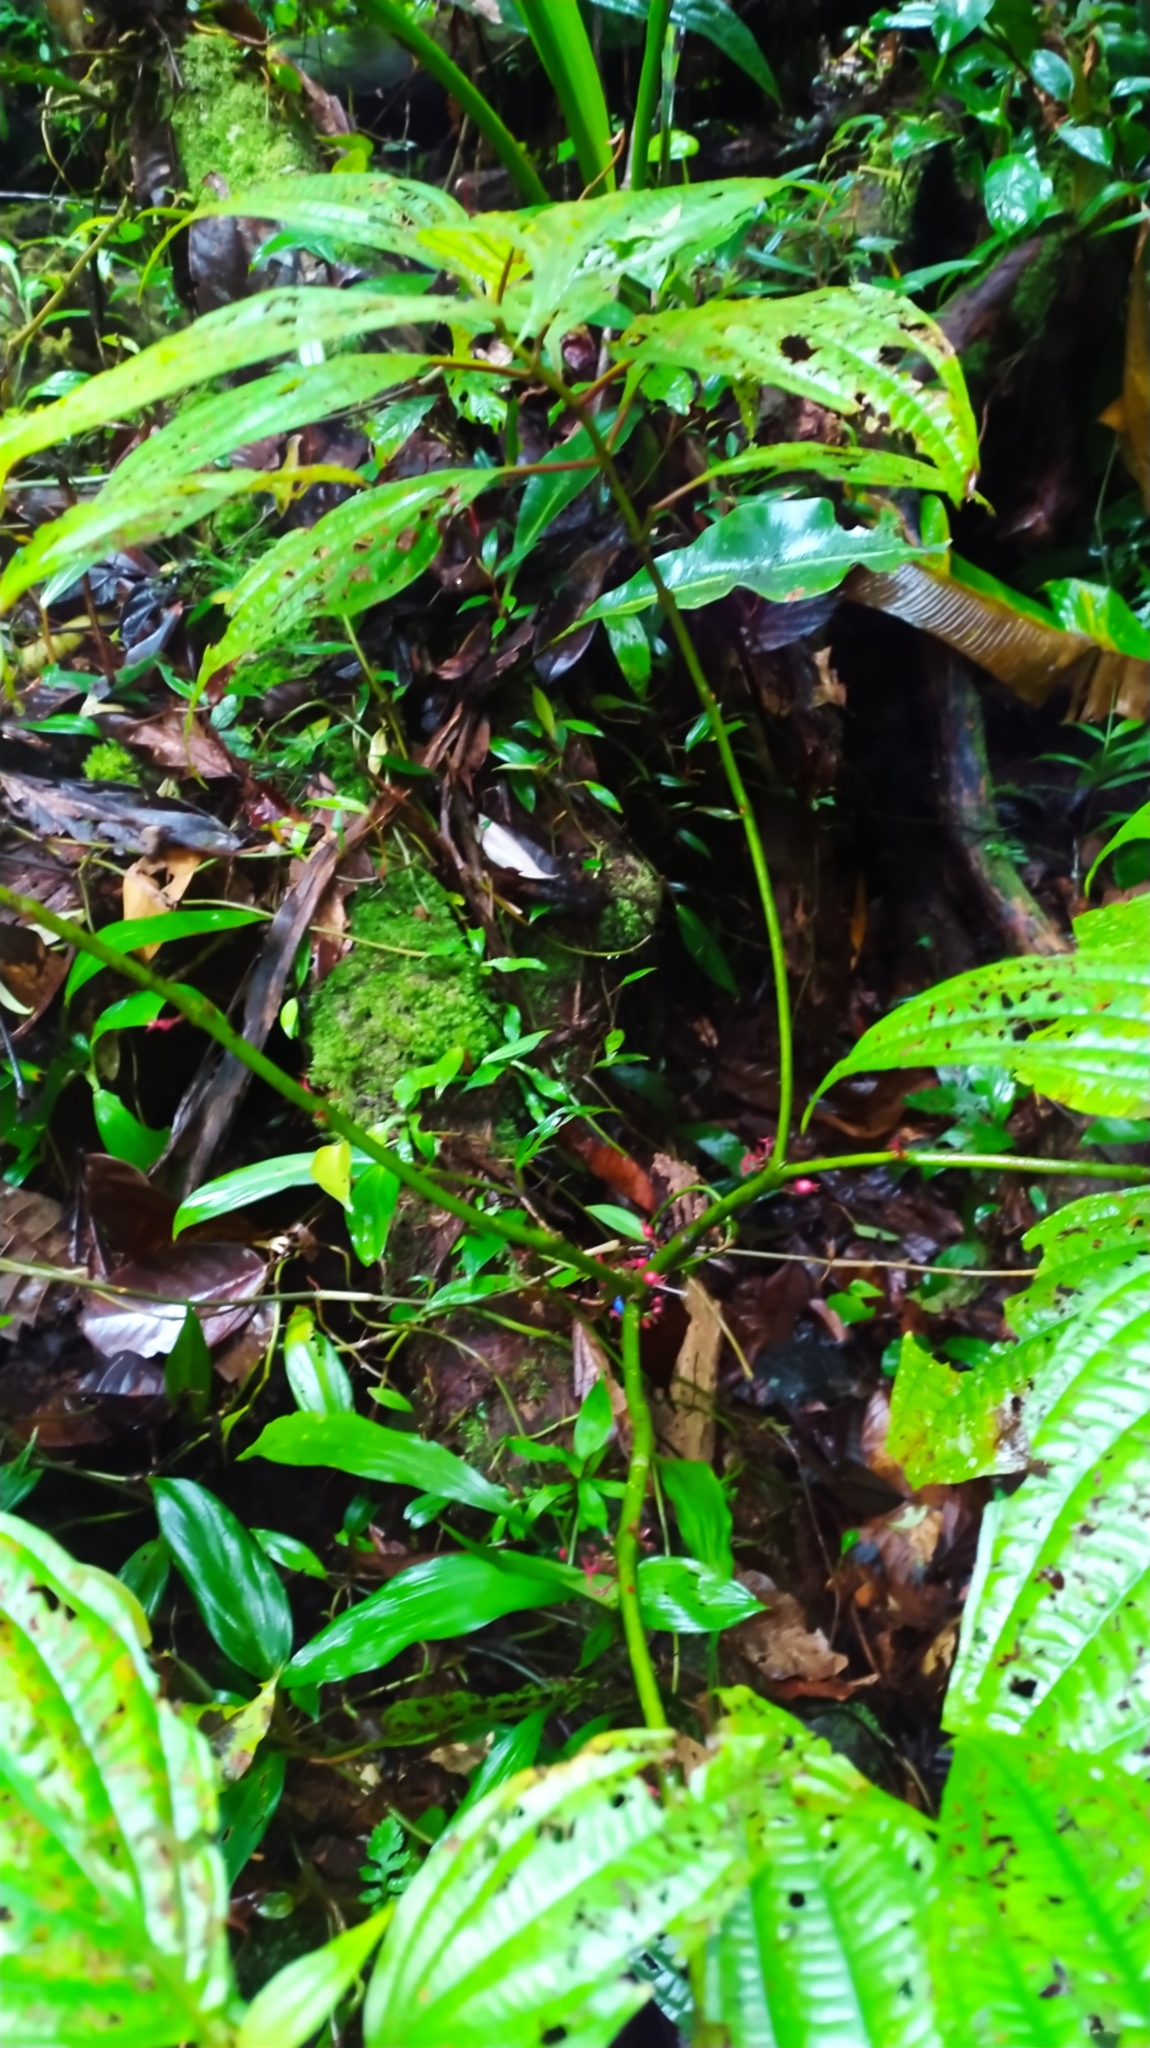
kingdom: Plantae
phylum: Tracheophyta
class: Magnoliopsida
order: Myrtales
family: Melastomataceae
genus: Miconia
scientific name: Miconia trichocalyx
